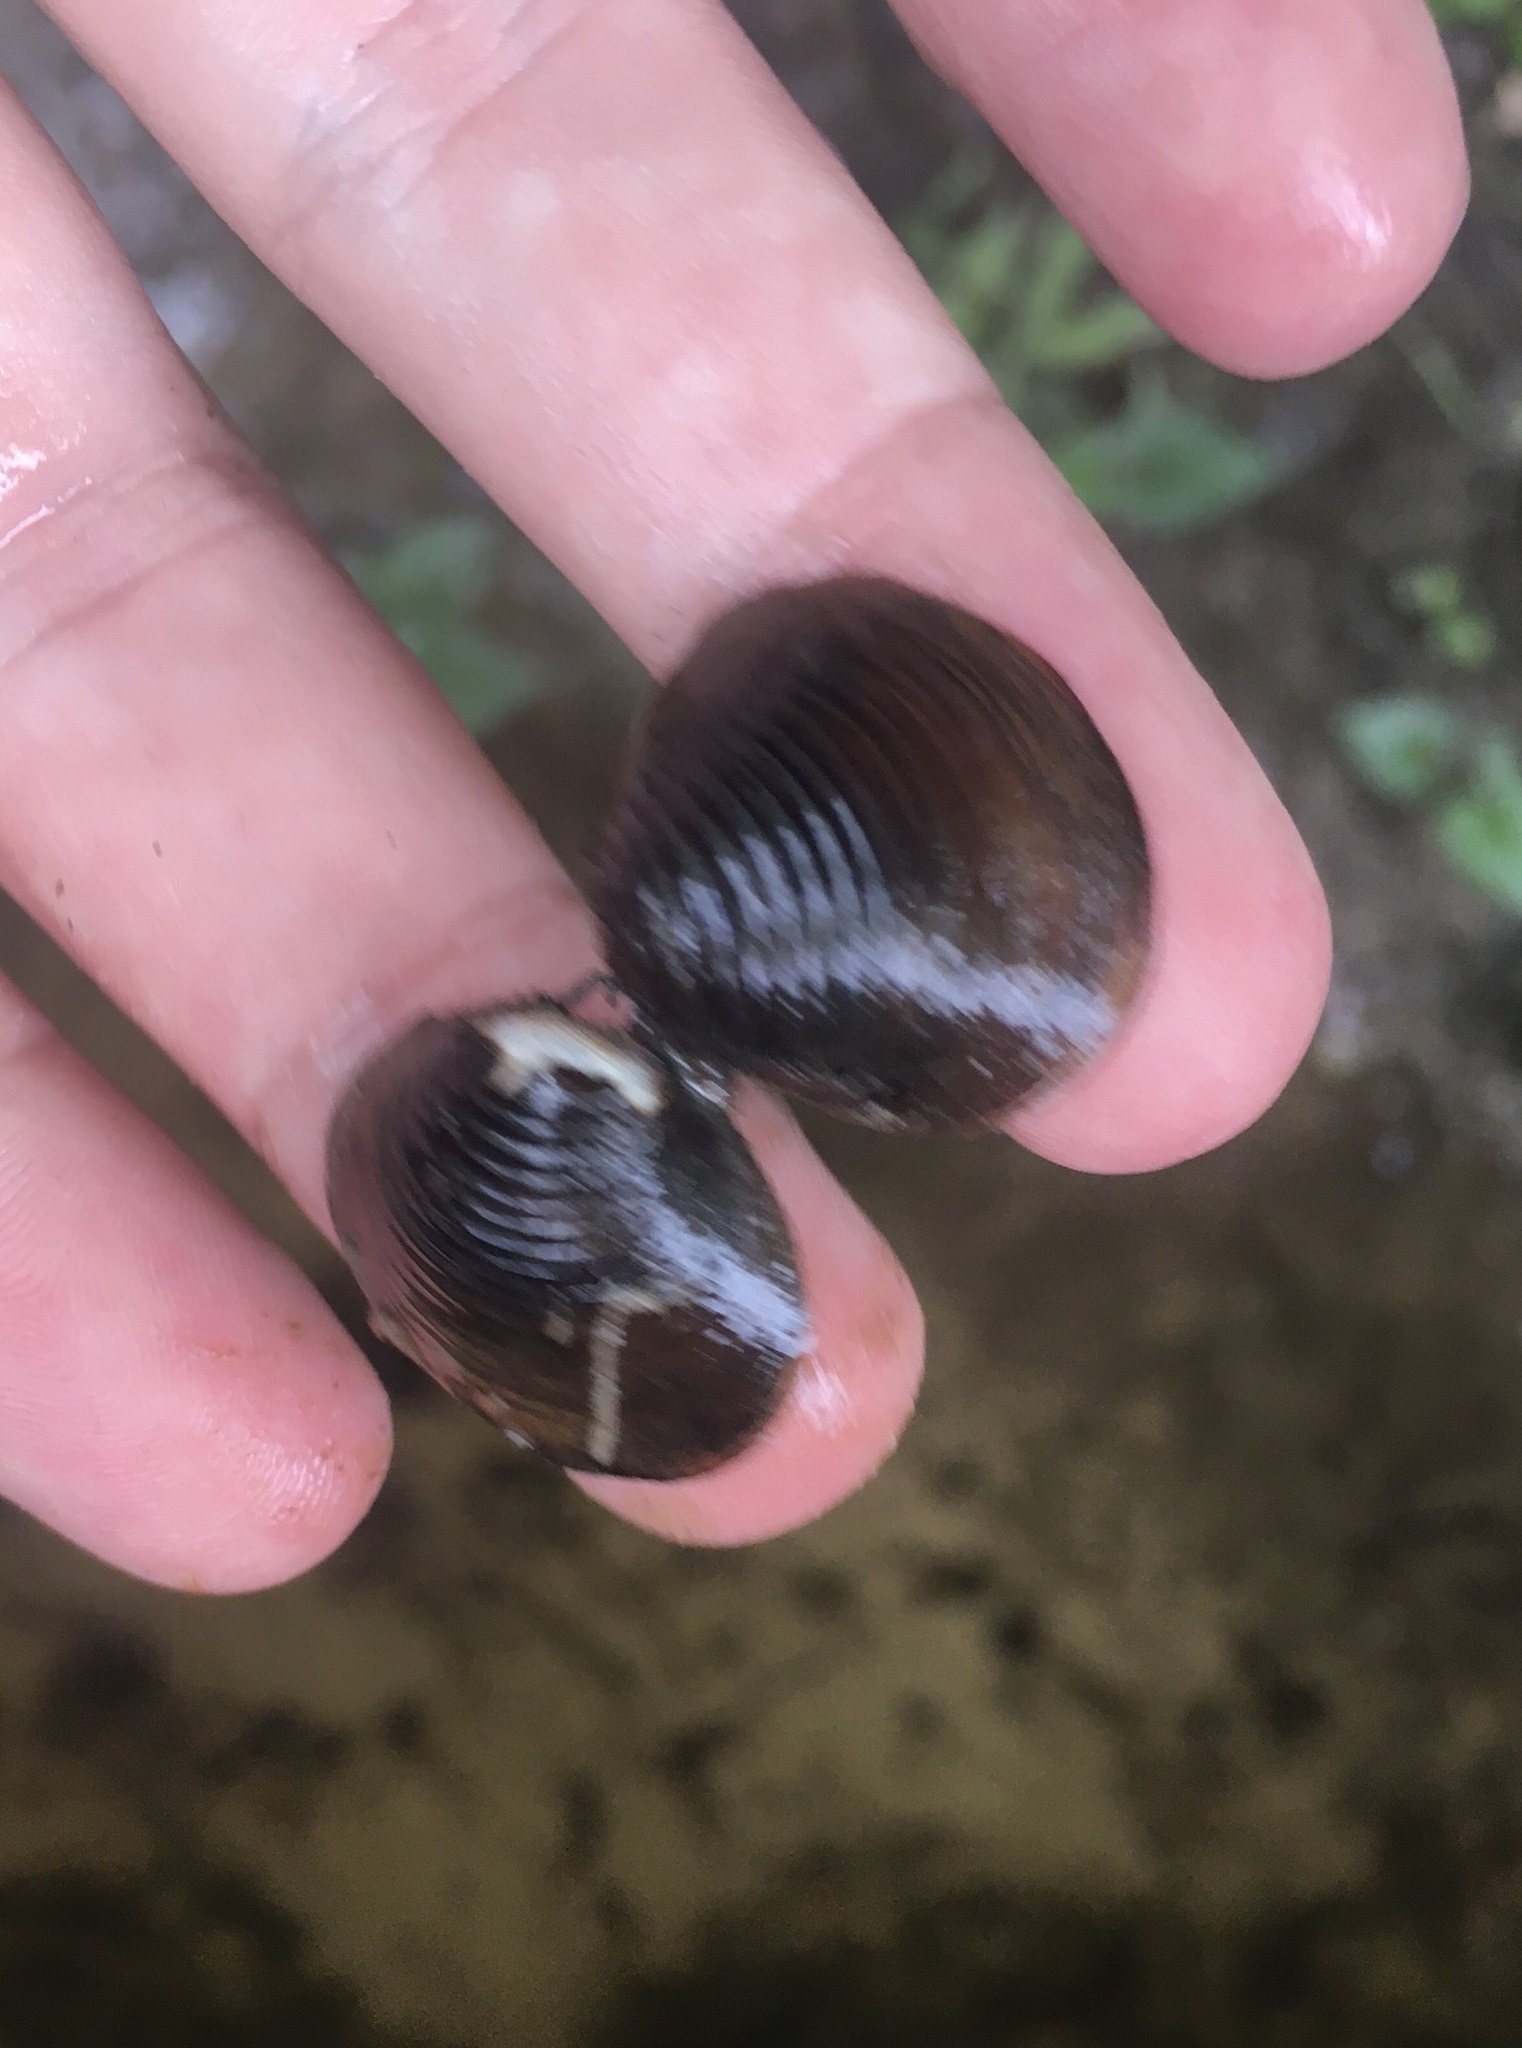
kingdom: Animalia
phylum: Mollusca
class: Bivalvia
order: Venerida
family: Cyrenidae
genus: Corbicula
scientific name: Corbicula fluminea
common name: Asian clam
